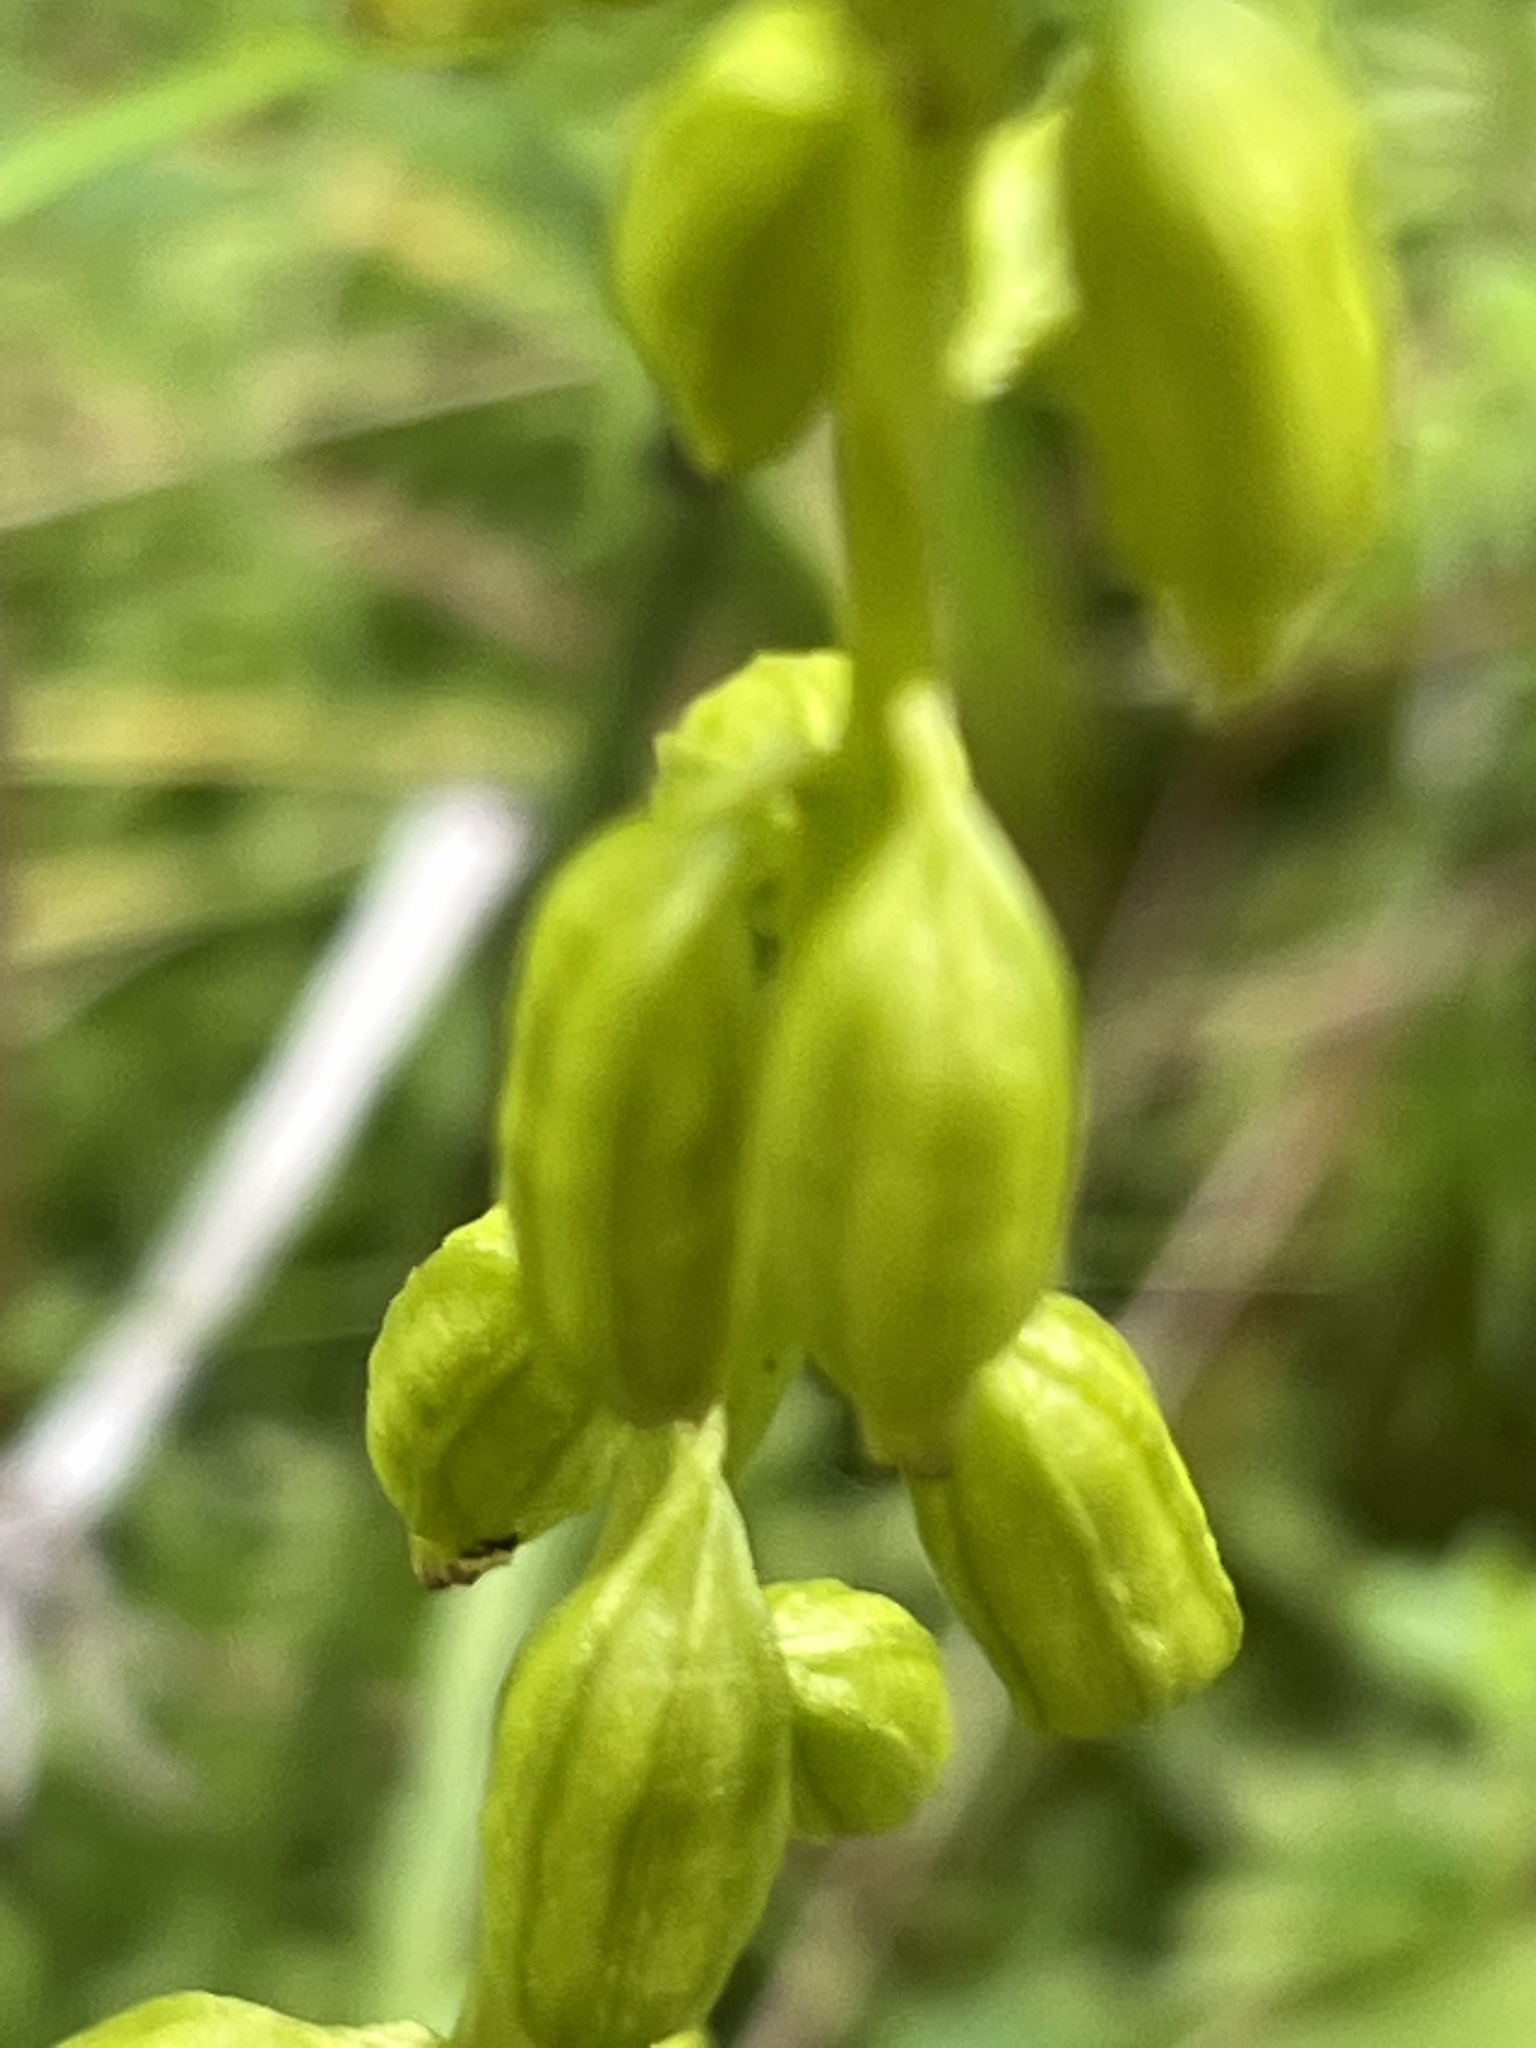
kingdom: Plantae
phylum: Tracheophyta
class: Liliopsida
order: Asparagales
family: Orchidaceae
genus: Corallorhiza
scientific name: Corallorhiza trifida
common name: Yellow coralroot
